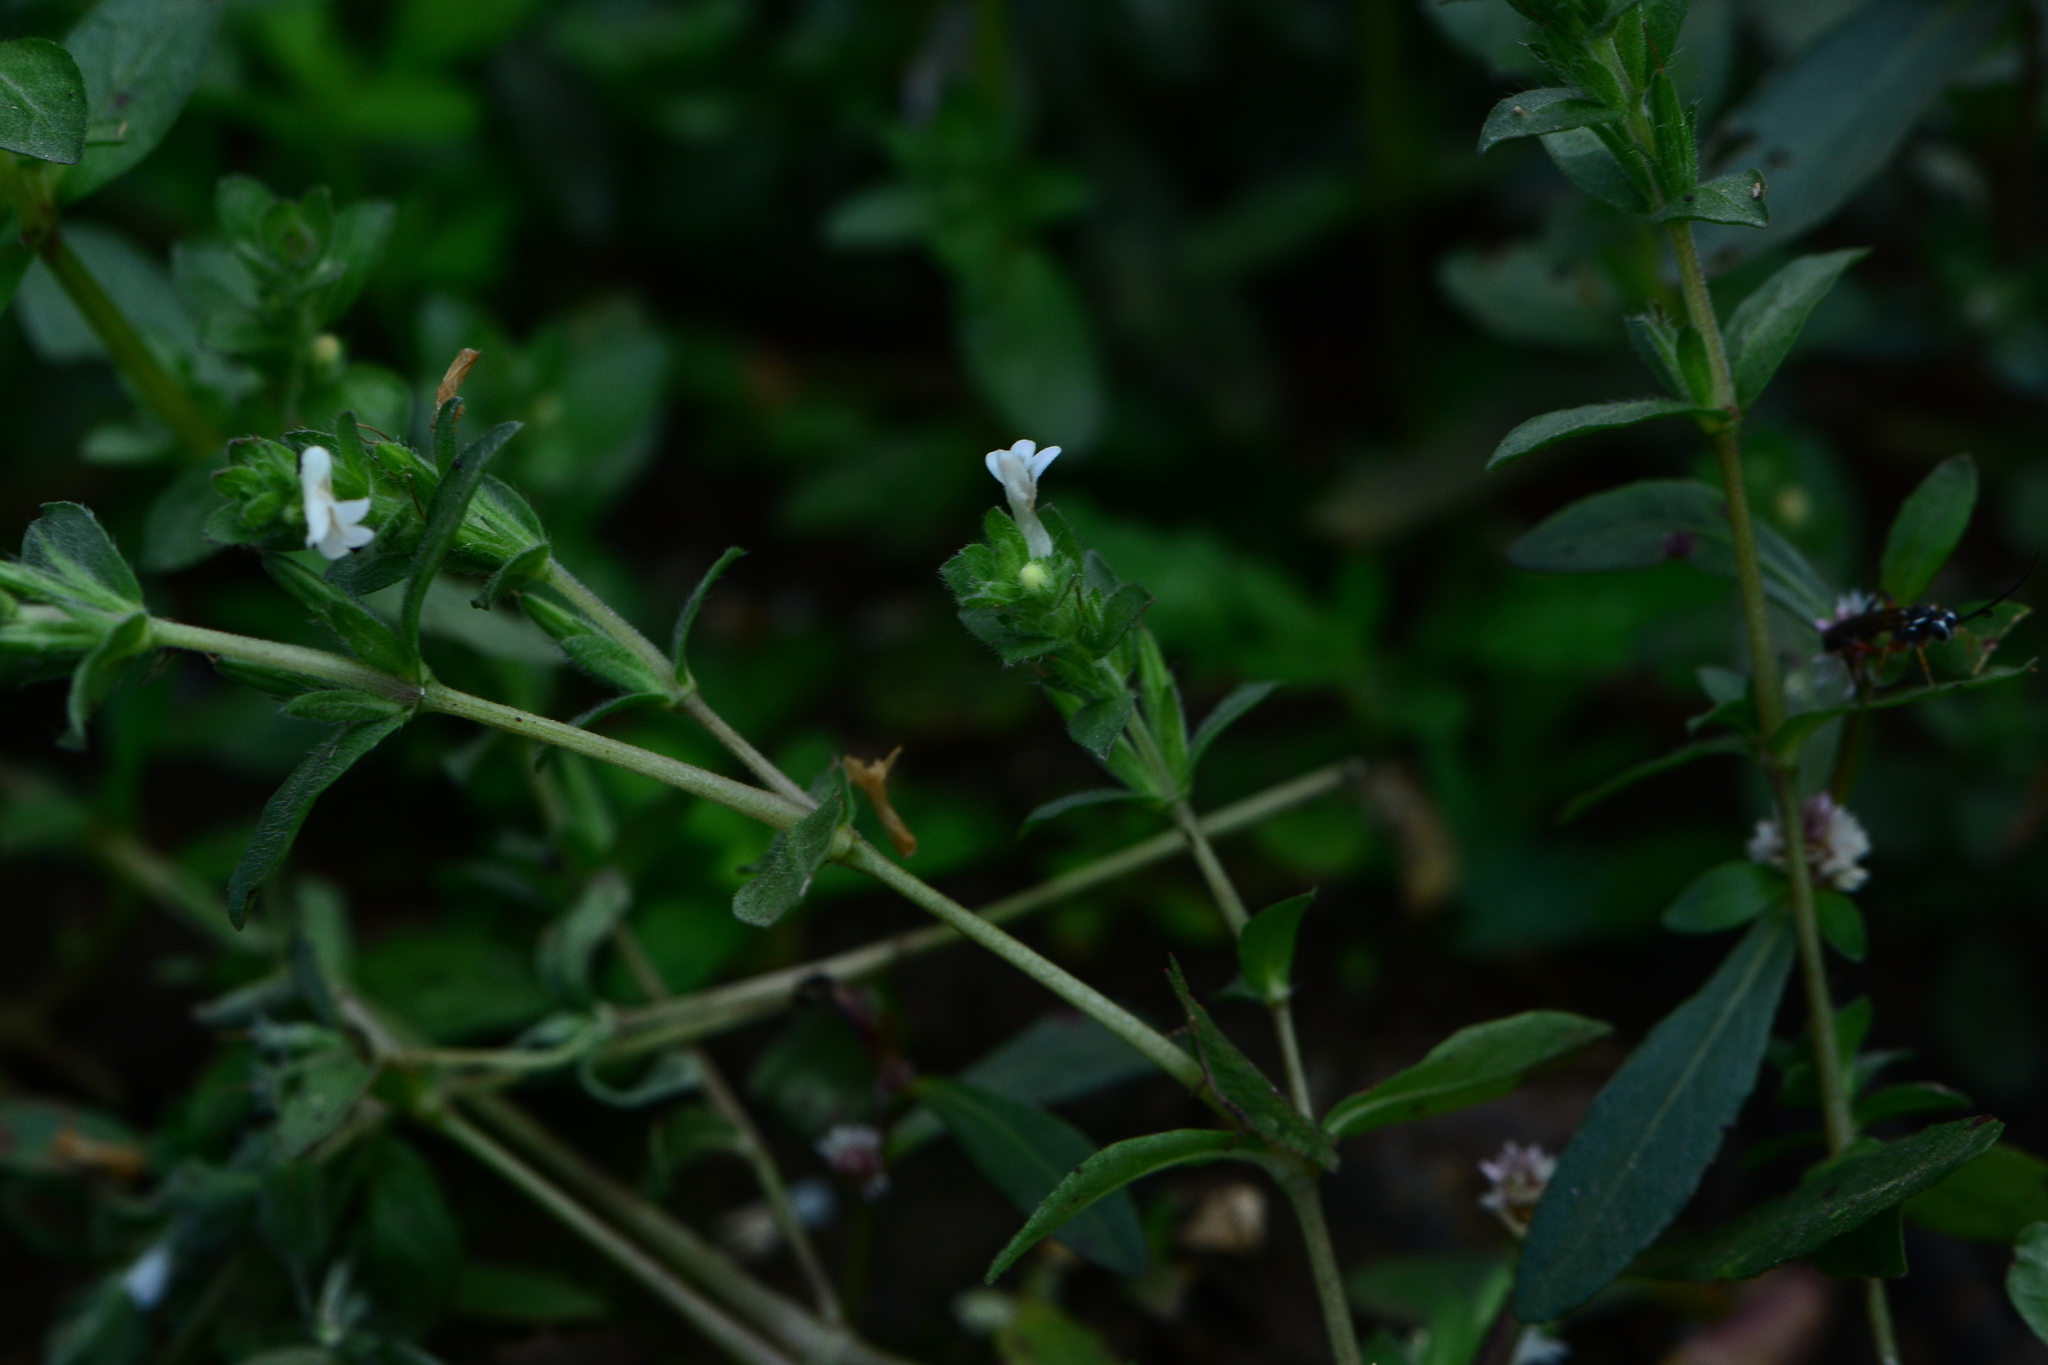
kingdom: Plantae
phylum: Tracheophyta
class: Magnoliopsida
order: Lamiales
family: Acanthaceae
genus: Hygrophila
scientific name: Hygrophila polysperma
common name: Indian swampweed
